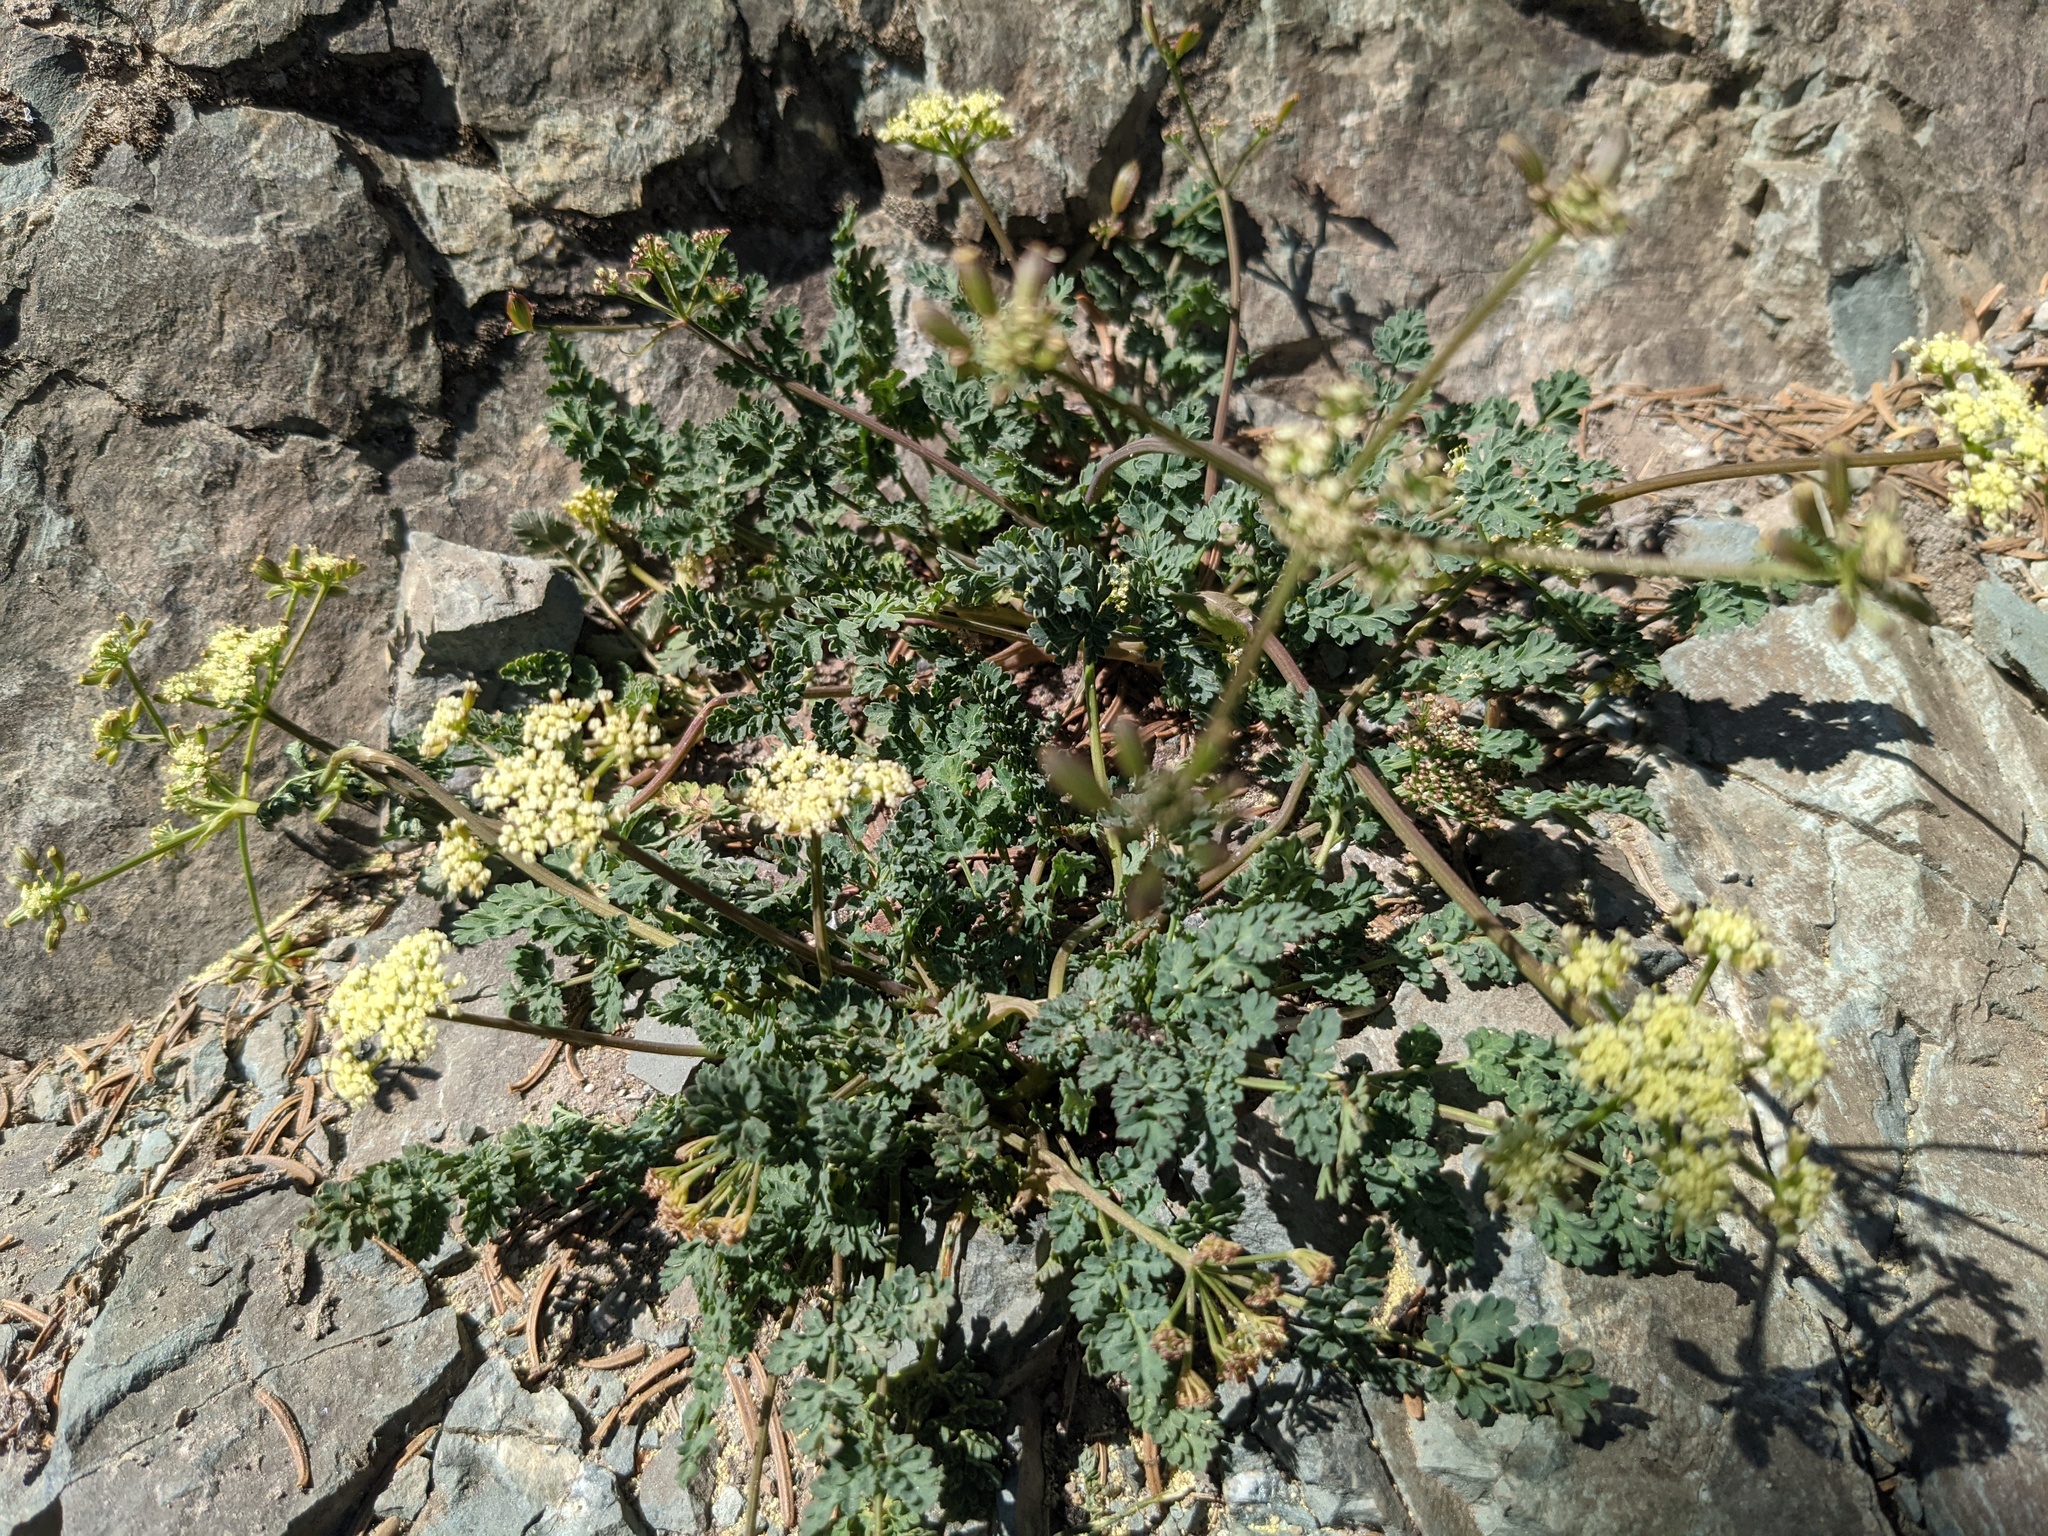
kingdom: Plantae
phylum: Tracheophyta
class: Magnoliopsida
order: Apiales
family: Apiaceae
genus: Lomatium
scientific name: Lomatium martindalei
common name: Cascade desert-parsley
